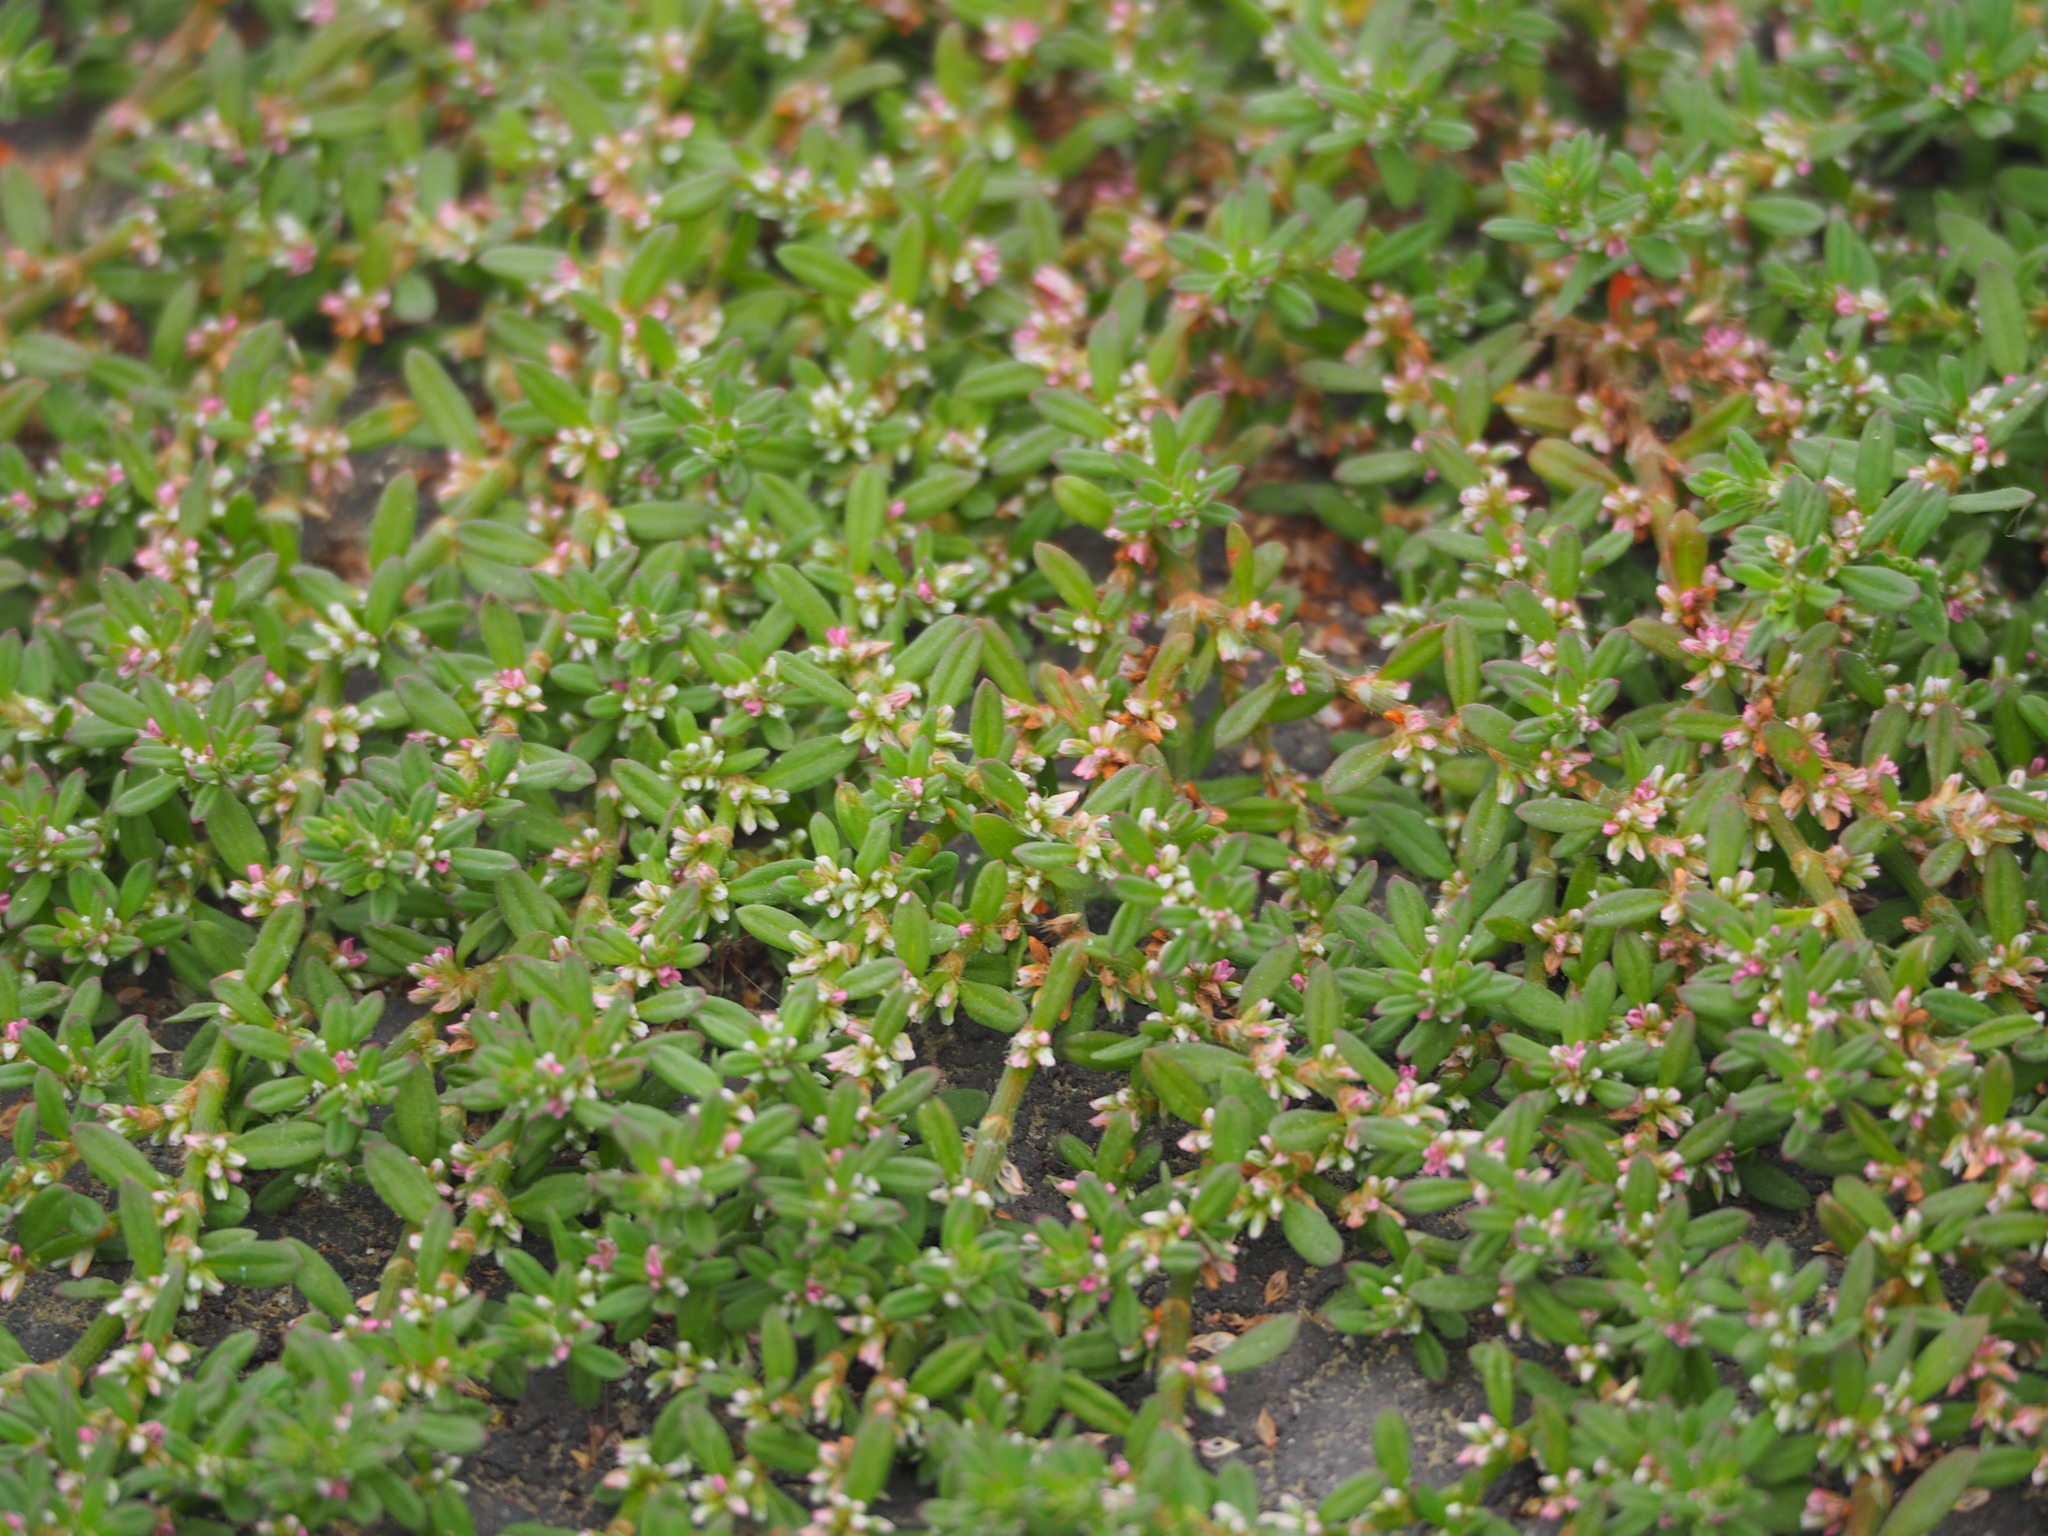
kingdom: Plantae
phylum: Tracheophyta
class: Magnoliopsida
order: Caryophyllales
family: Polygonaceae
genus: Polygonum
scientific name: Polygonum plebeium
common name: Common knotweed
